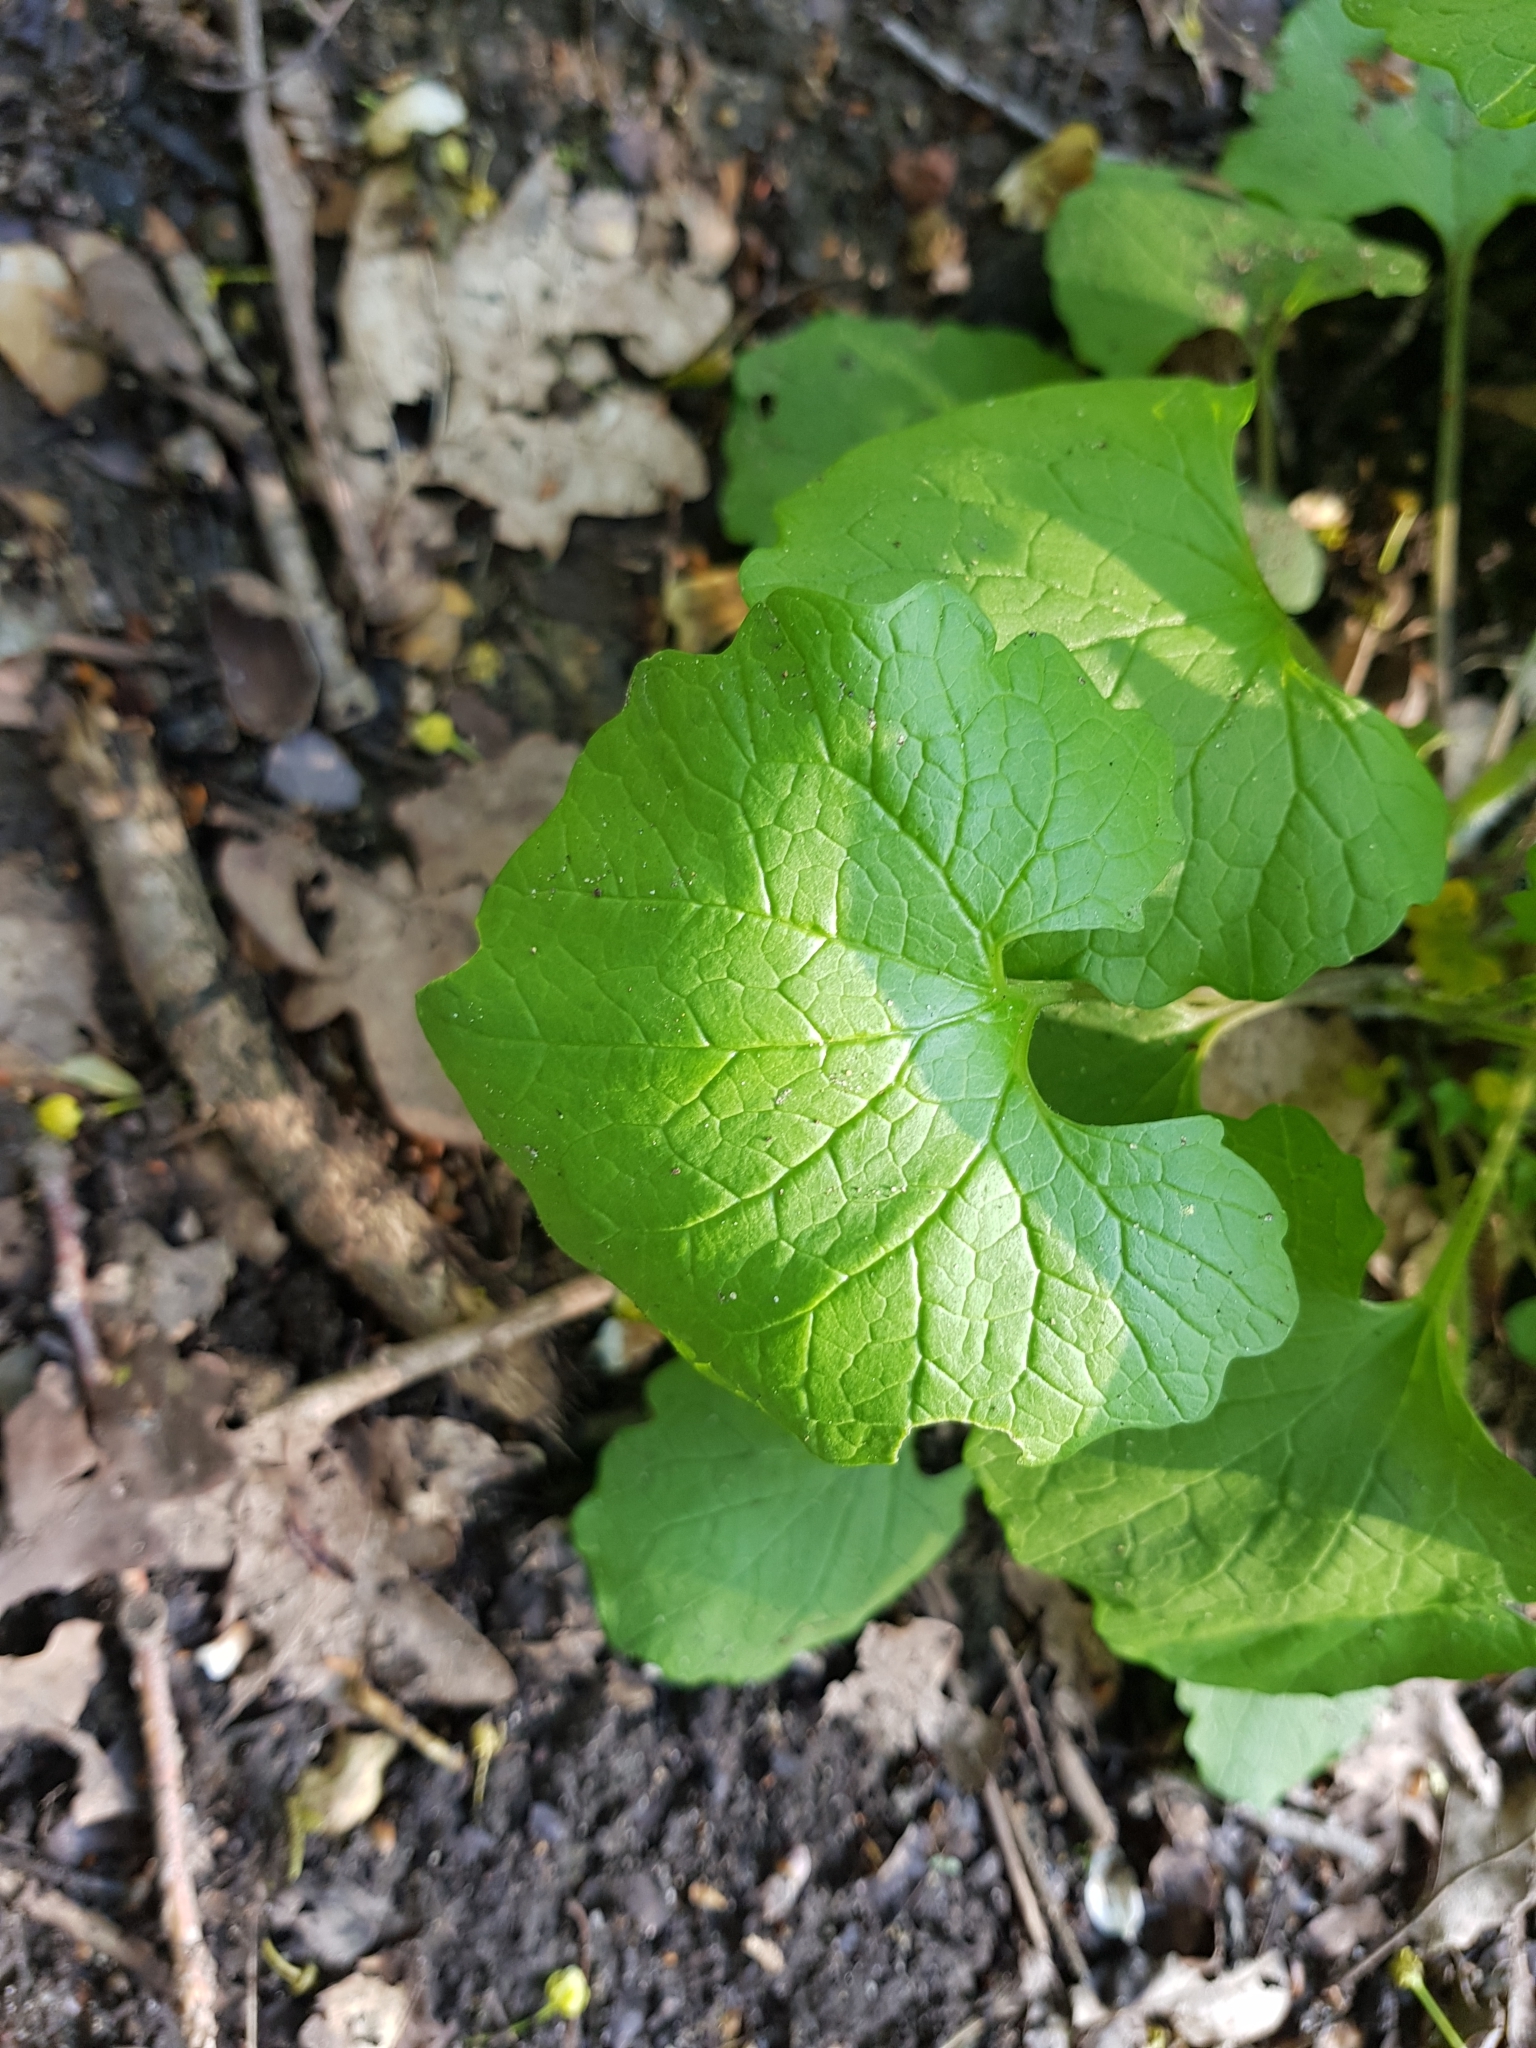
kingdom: Plantae
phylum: Tracheophyta
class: Magnoliopsida
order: Brassicales
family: Brassicaceae
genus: Alliaria
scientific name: Alliaria petiolata
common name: Garlic mustard
